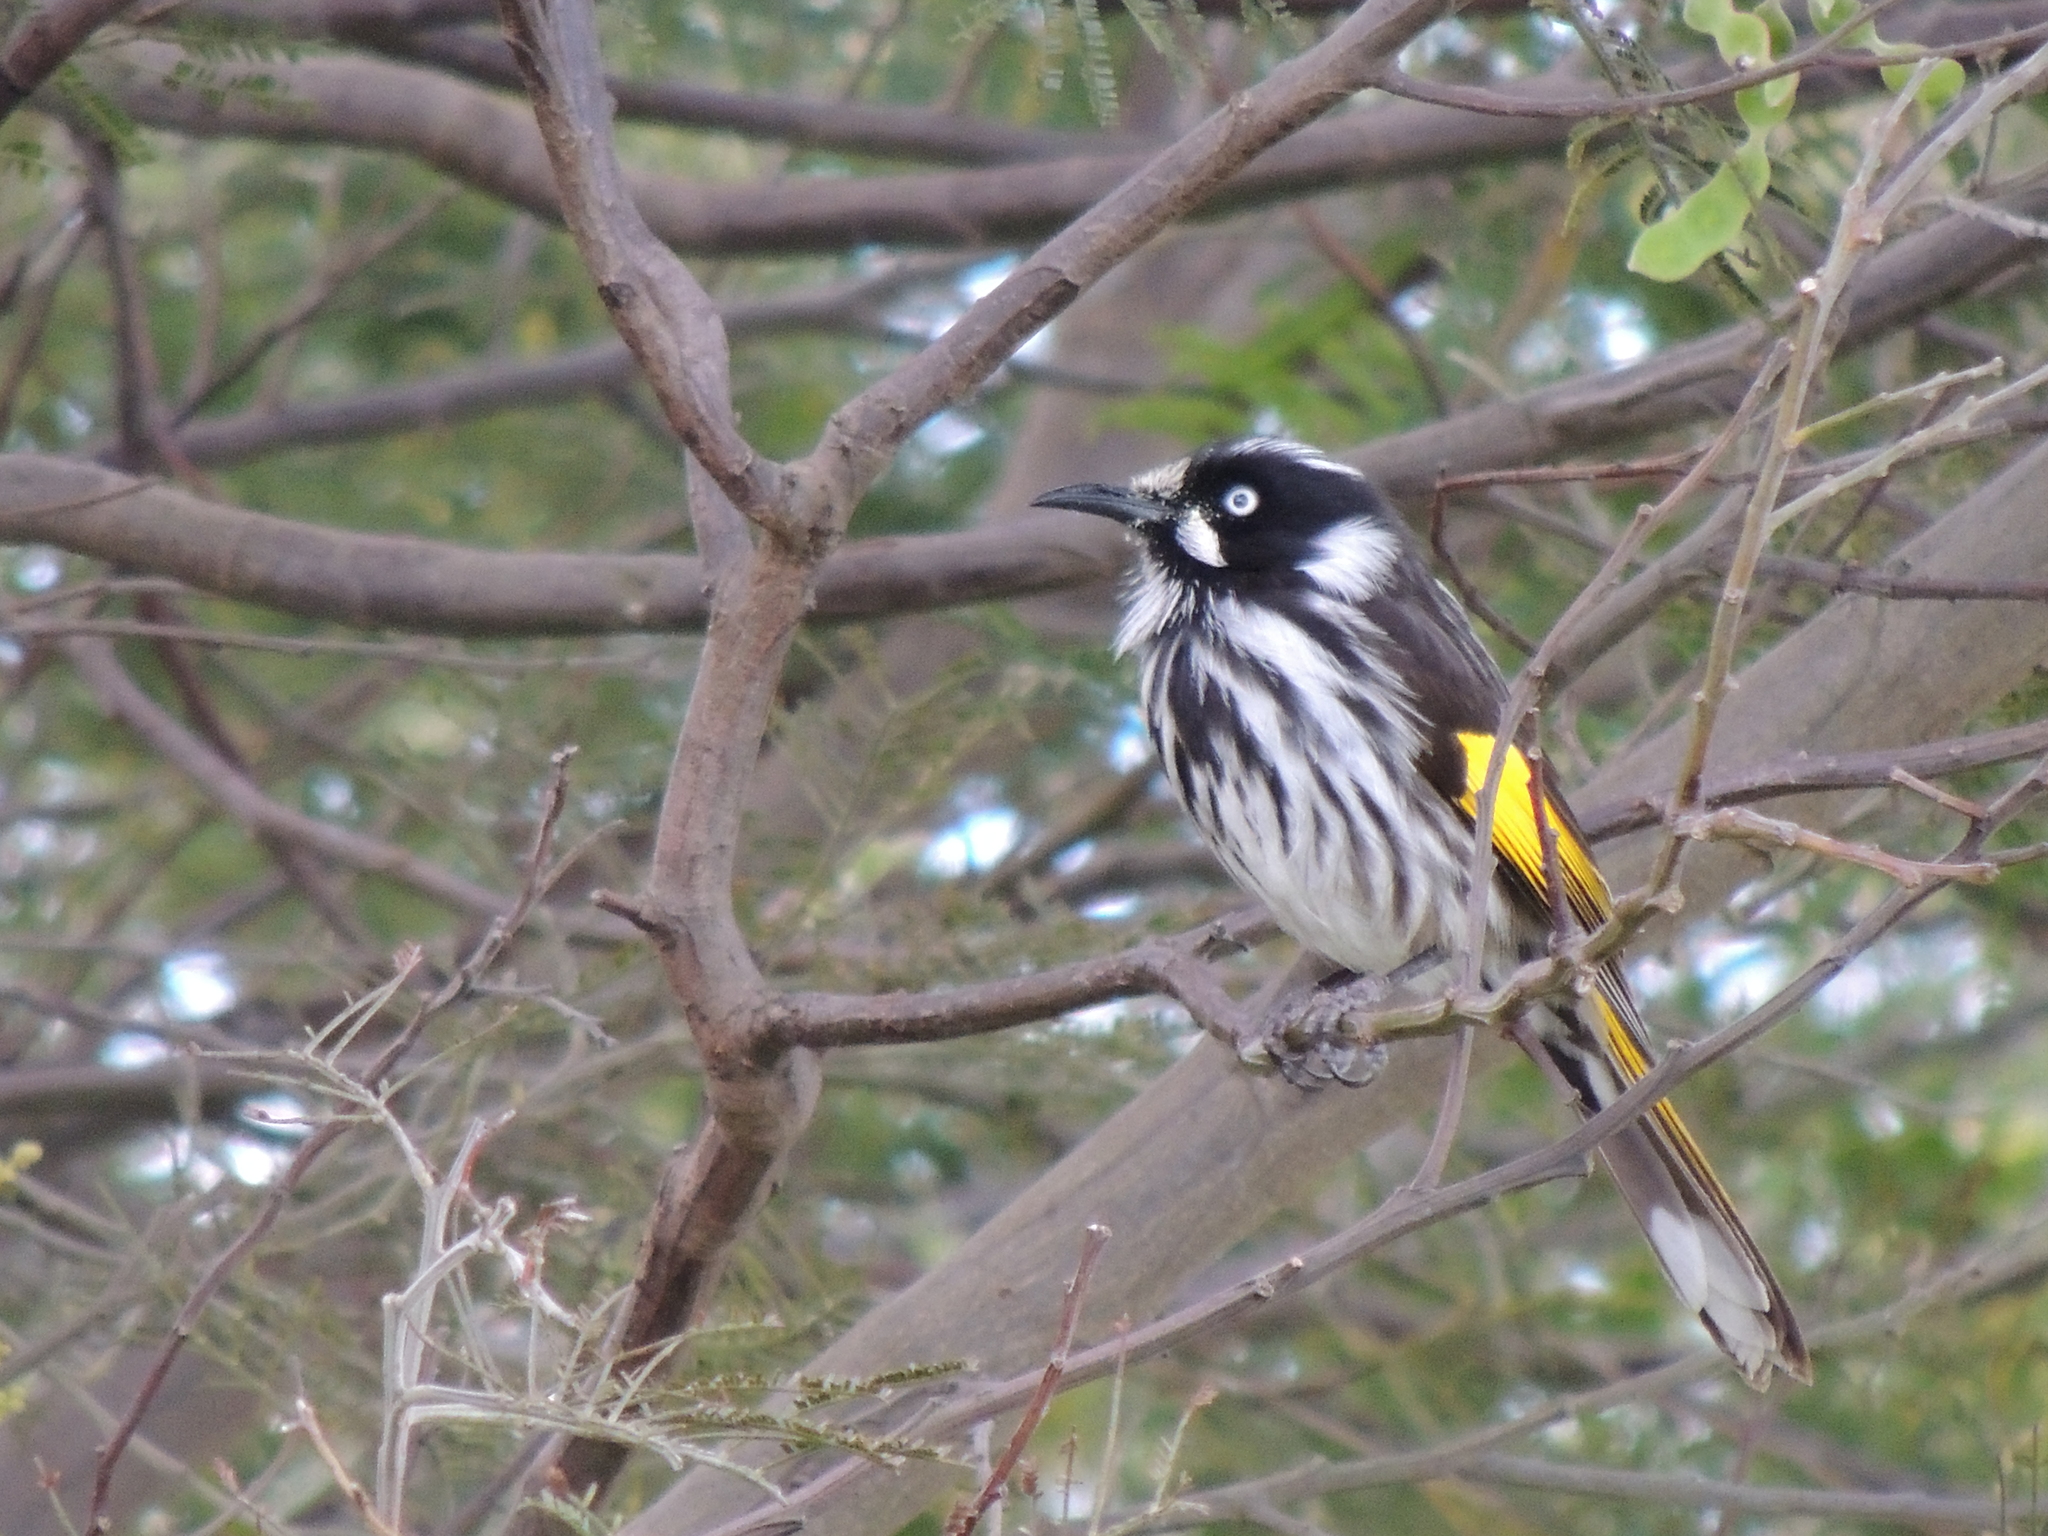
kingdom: Animalia
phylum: Chordata
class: Aves
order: Passeriformes
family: Meliphagidae
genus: Phylidonyris
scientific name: Phylidonyris novaehollandiae
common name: New holland honeyeater
